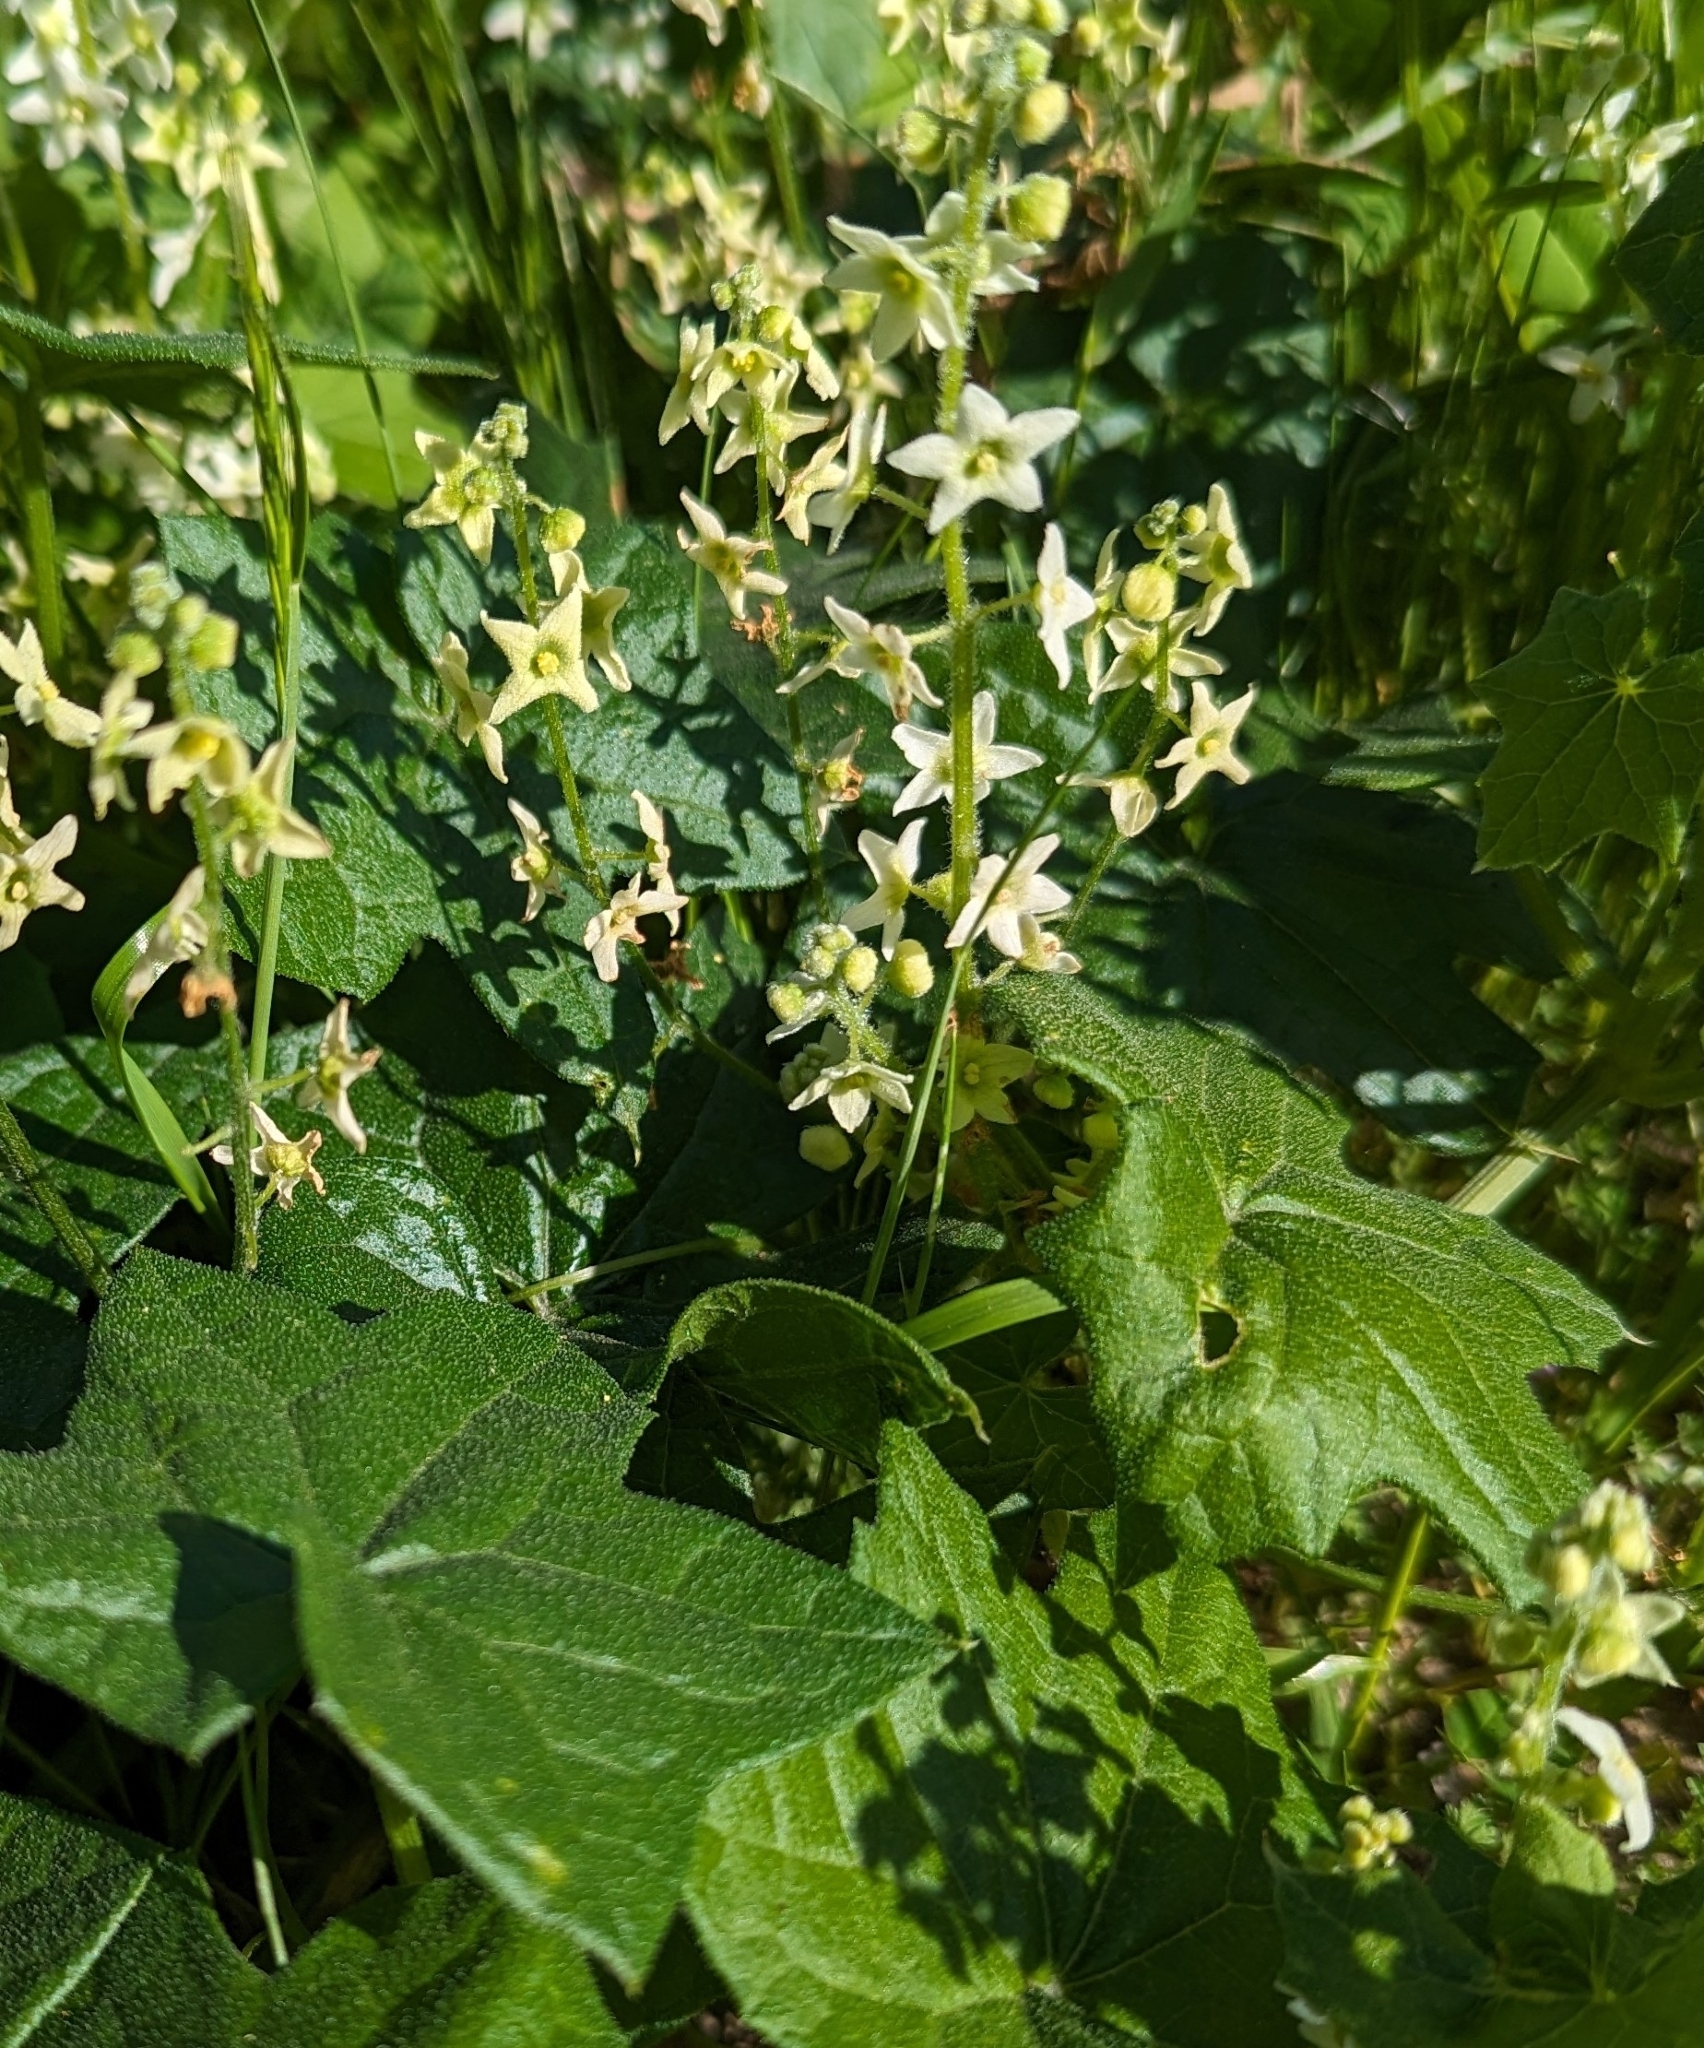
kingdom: Plantae
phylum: Tracheophyta
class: Magnoliopsida
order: Cucurbitales
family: Cucurbitaceae
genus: Marah
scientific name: Marah fabacea
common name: California manroot
